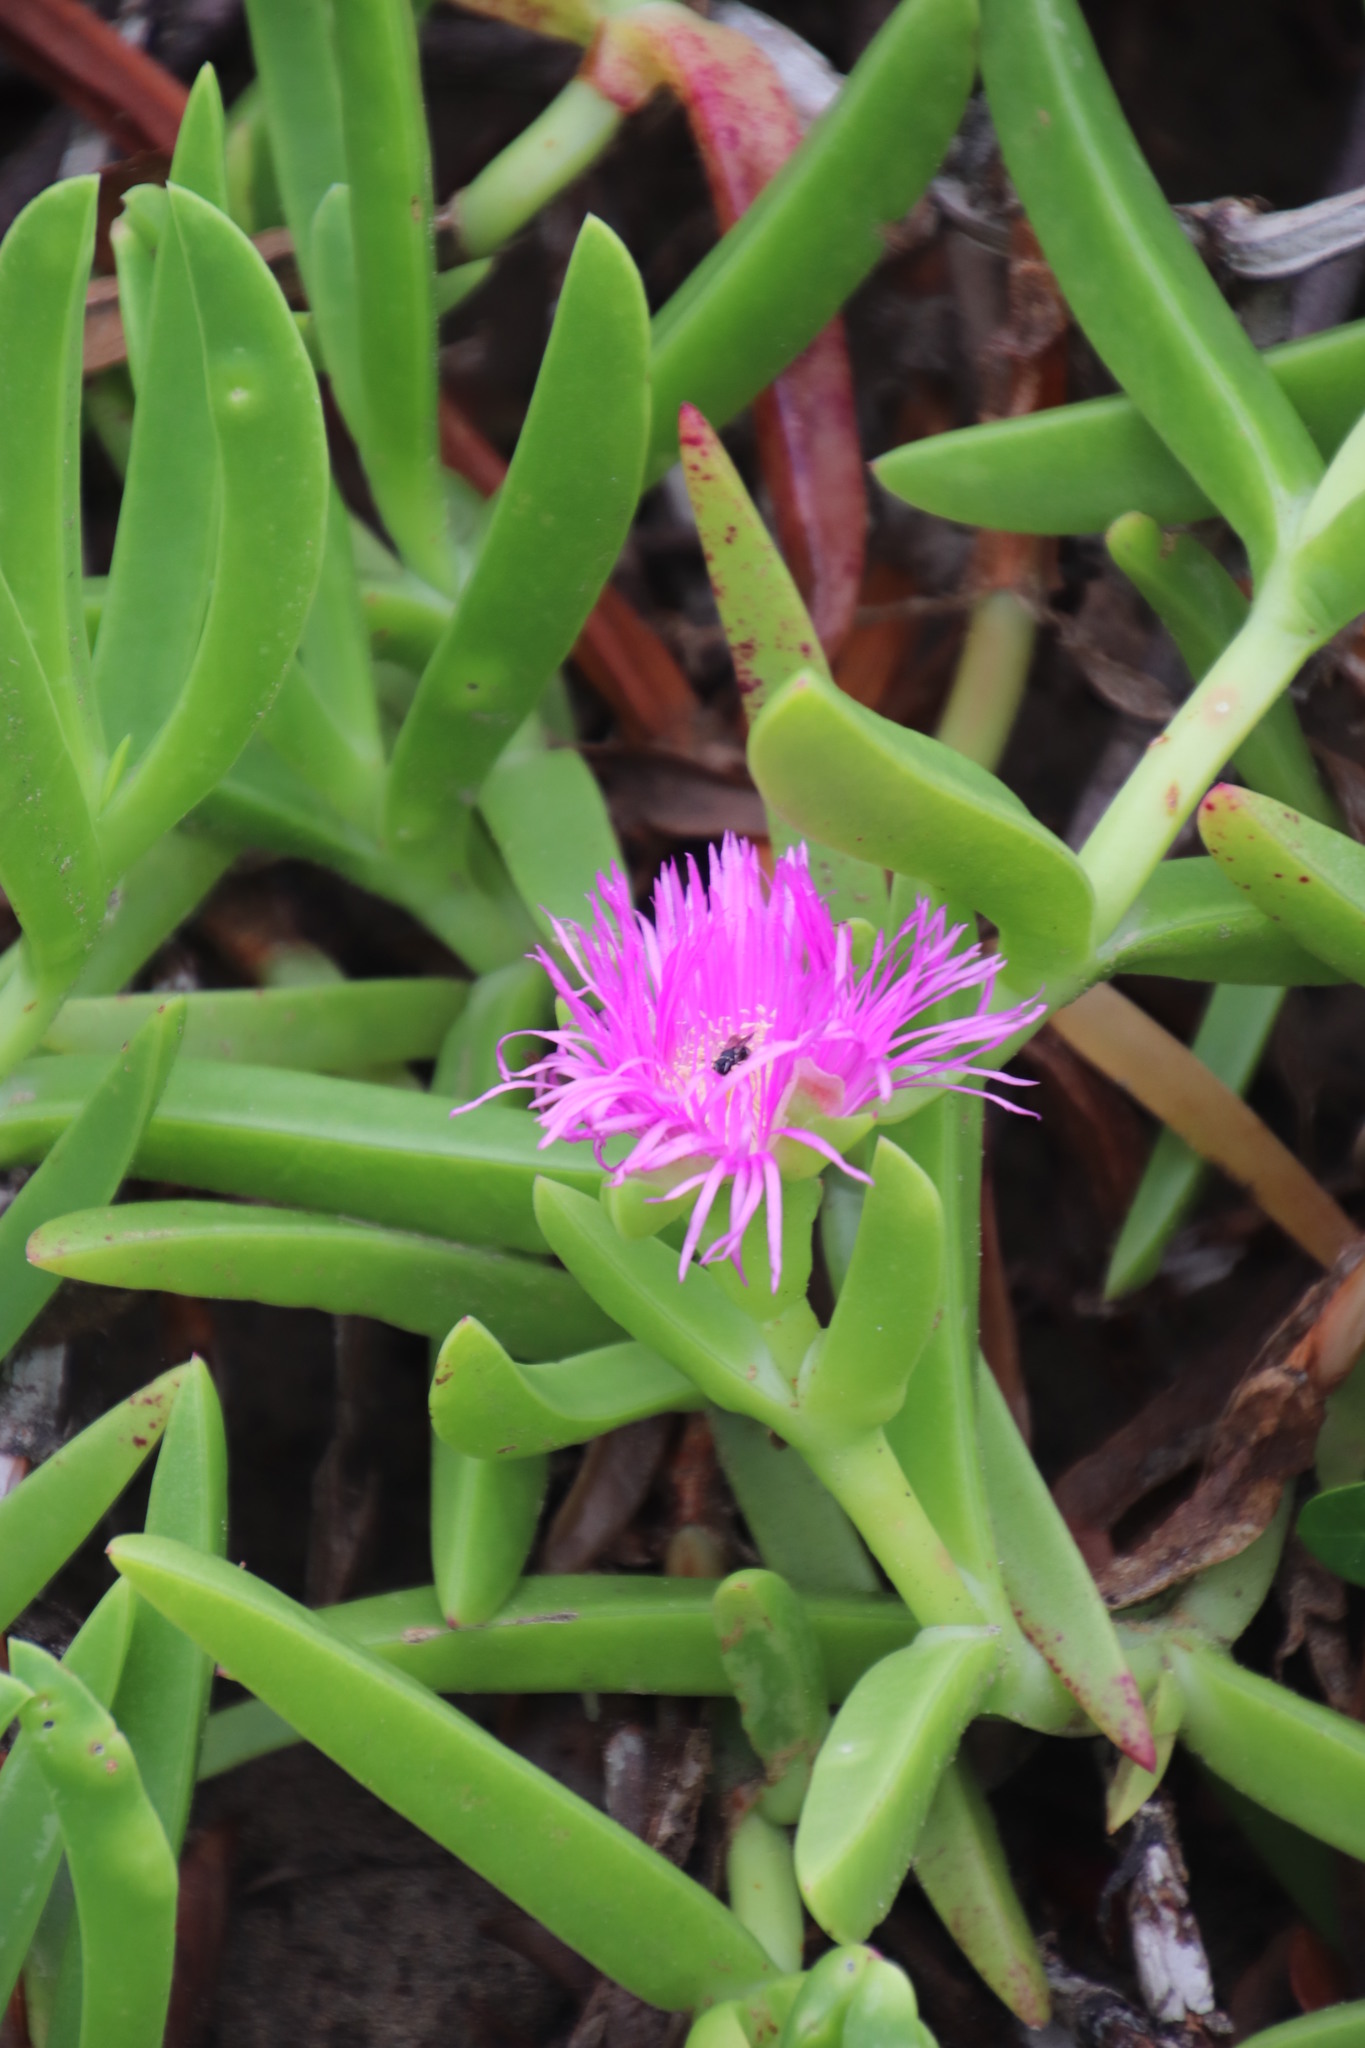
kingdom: Plantae
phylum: Tracheophyta
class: Magnoliopsida
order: Caryophyllales
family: Aizoaceae
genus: Carpobrotus
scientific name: Carpobrotus dimidiatus
